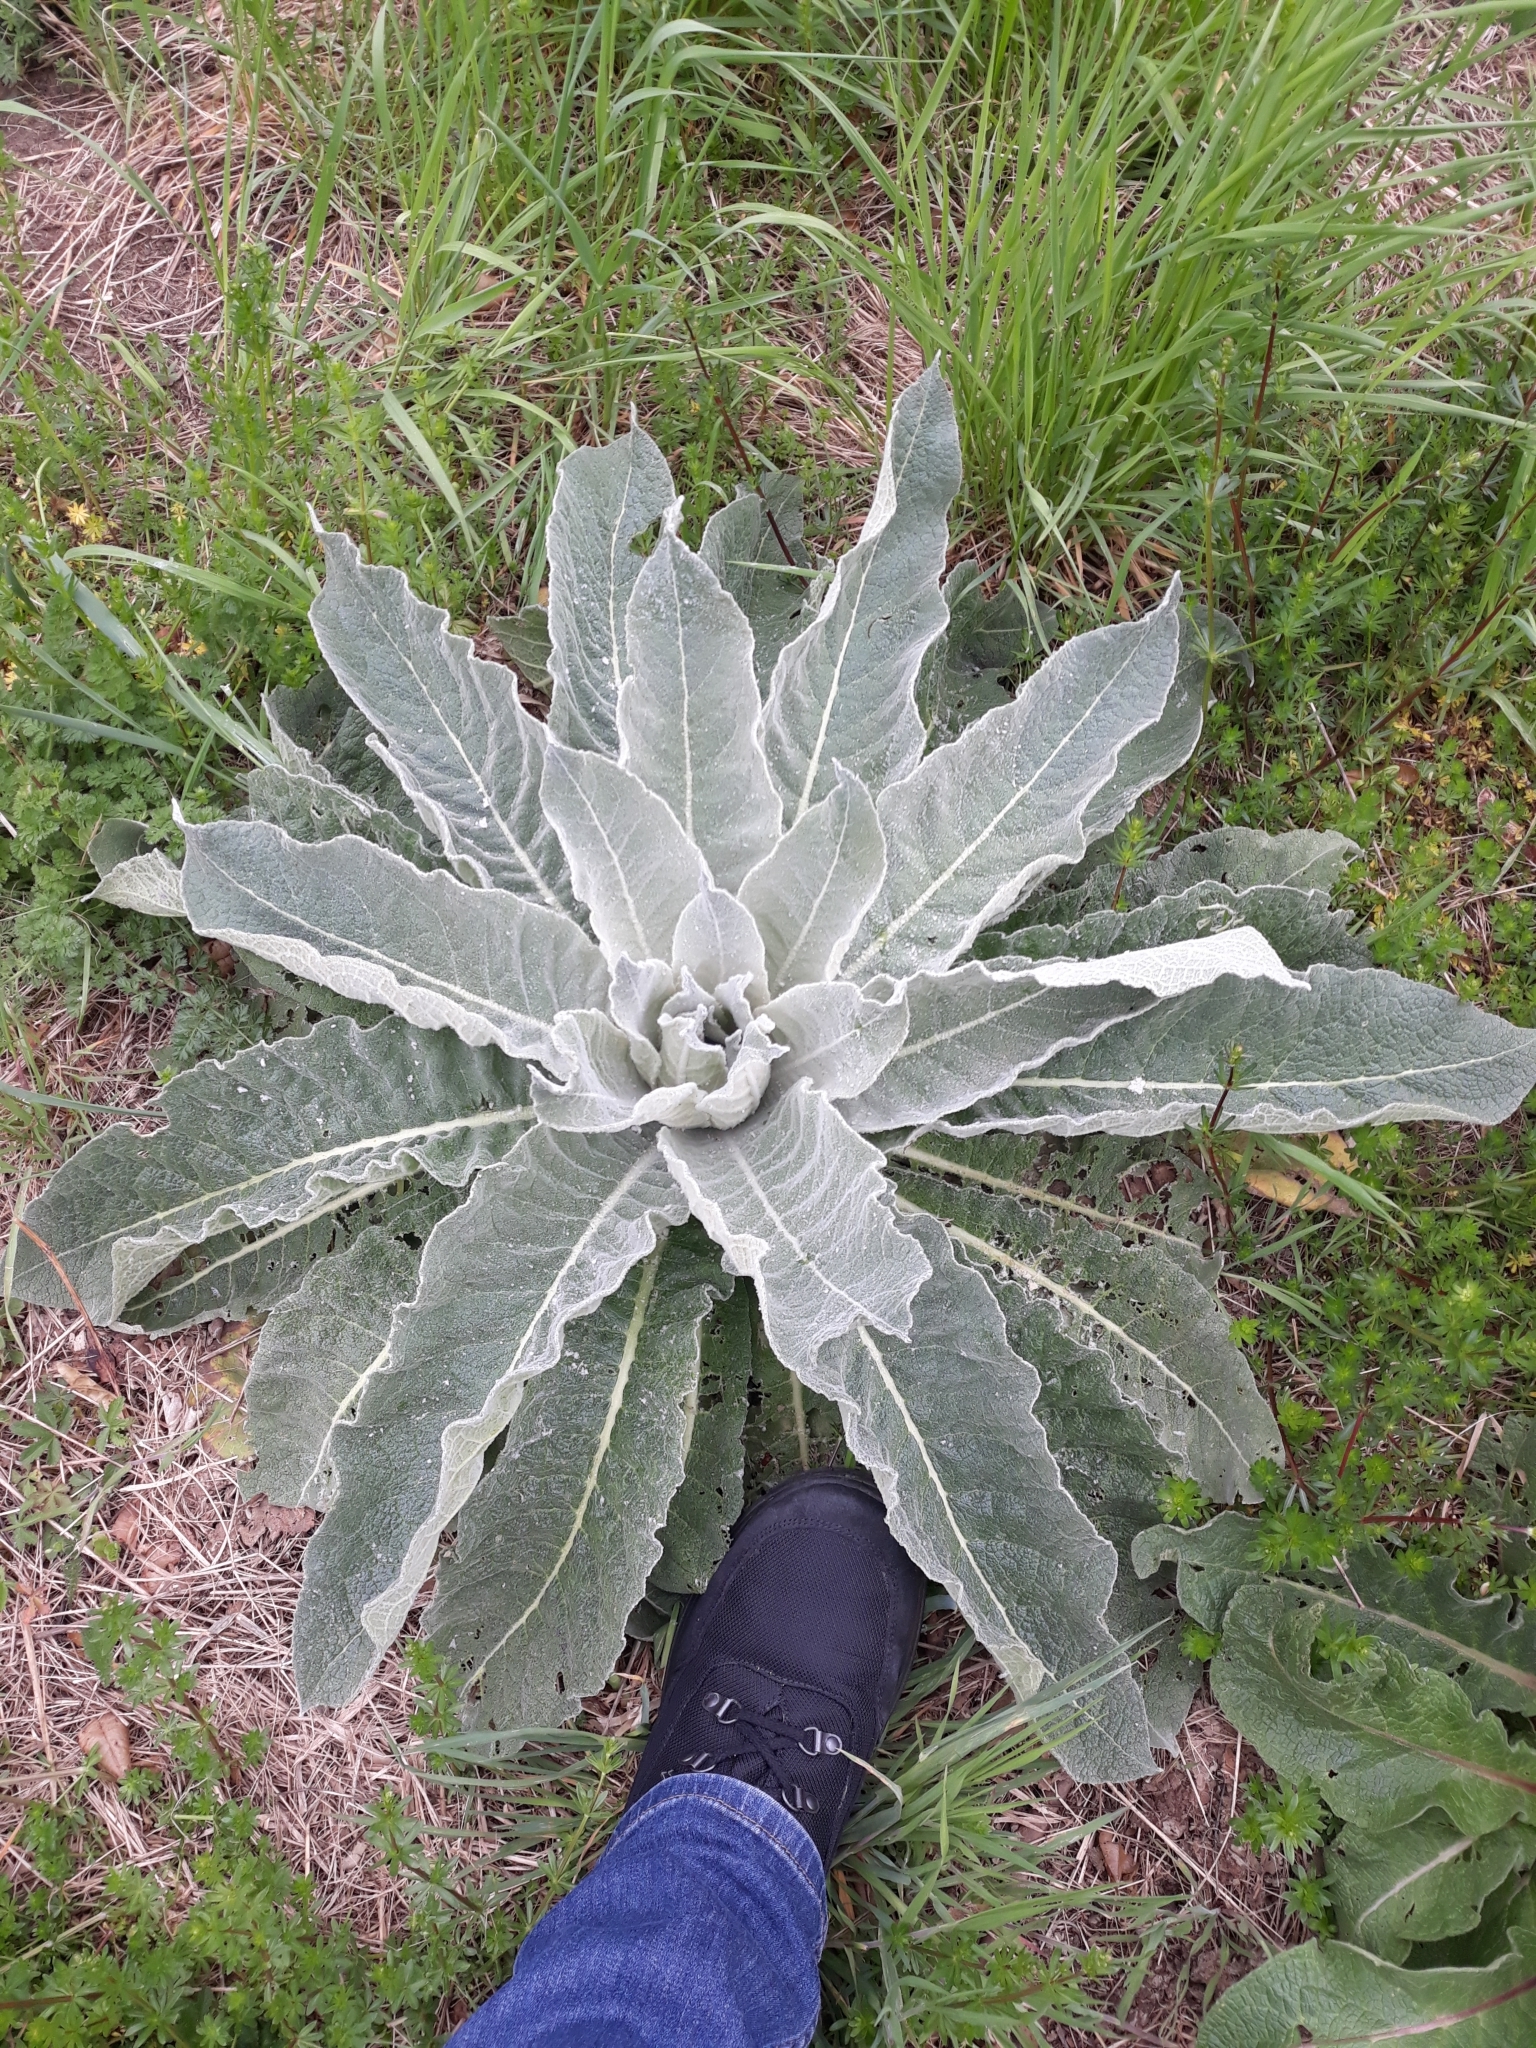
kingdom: Plantae
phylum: Tracheophyta
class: Magnoliopsida
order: Lamiales
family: Scrophulariaceae
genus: Verbascum
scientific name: Verbascum pulverulentum
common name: Broad-leaf mullein
